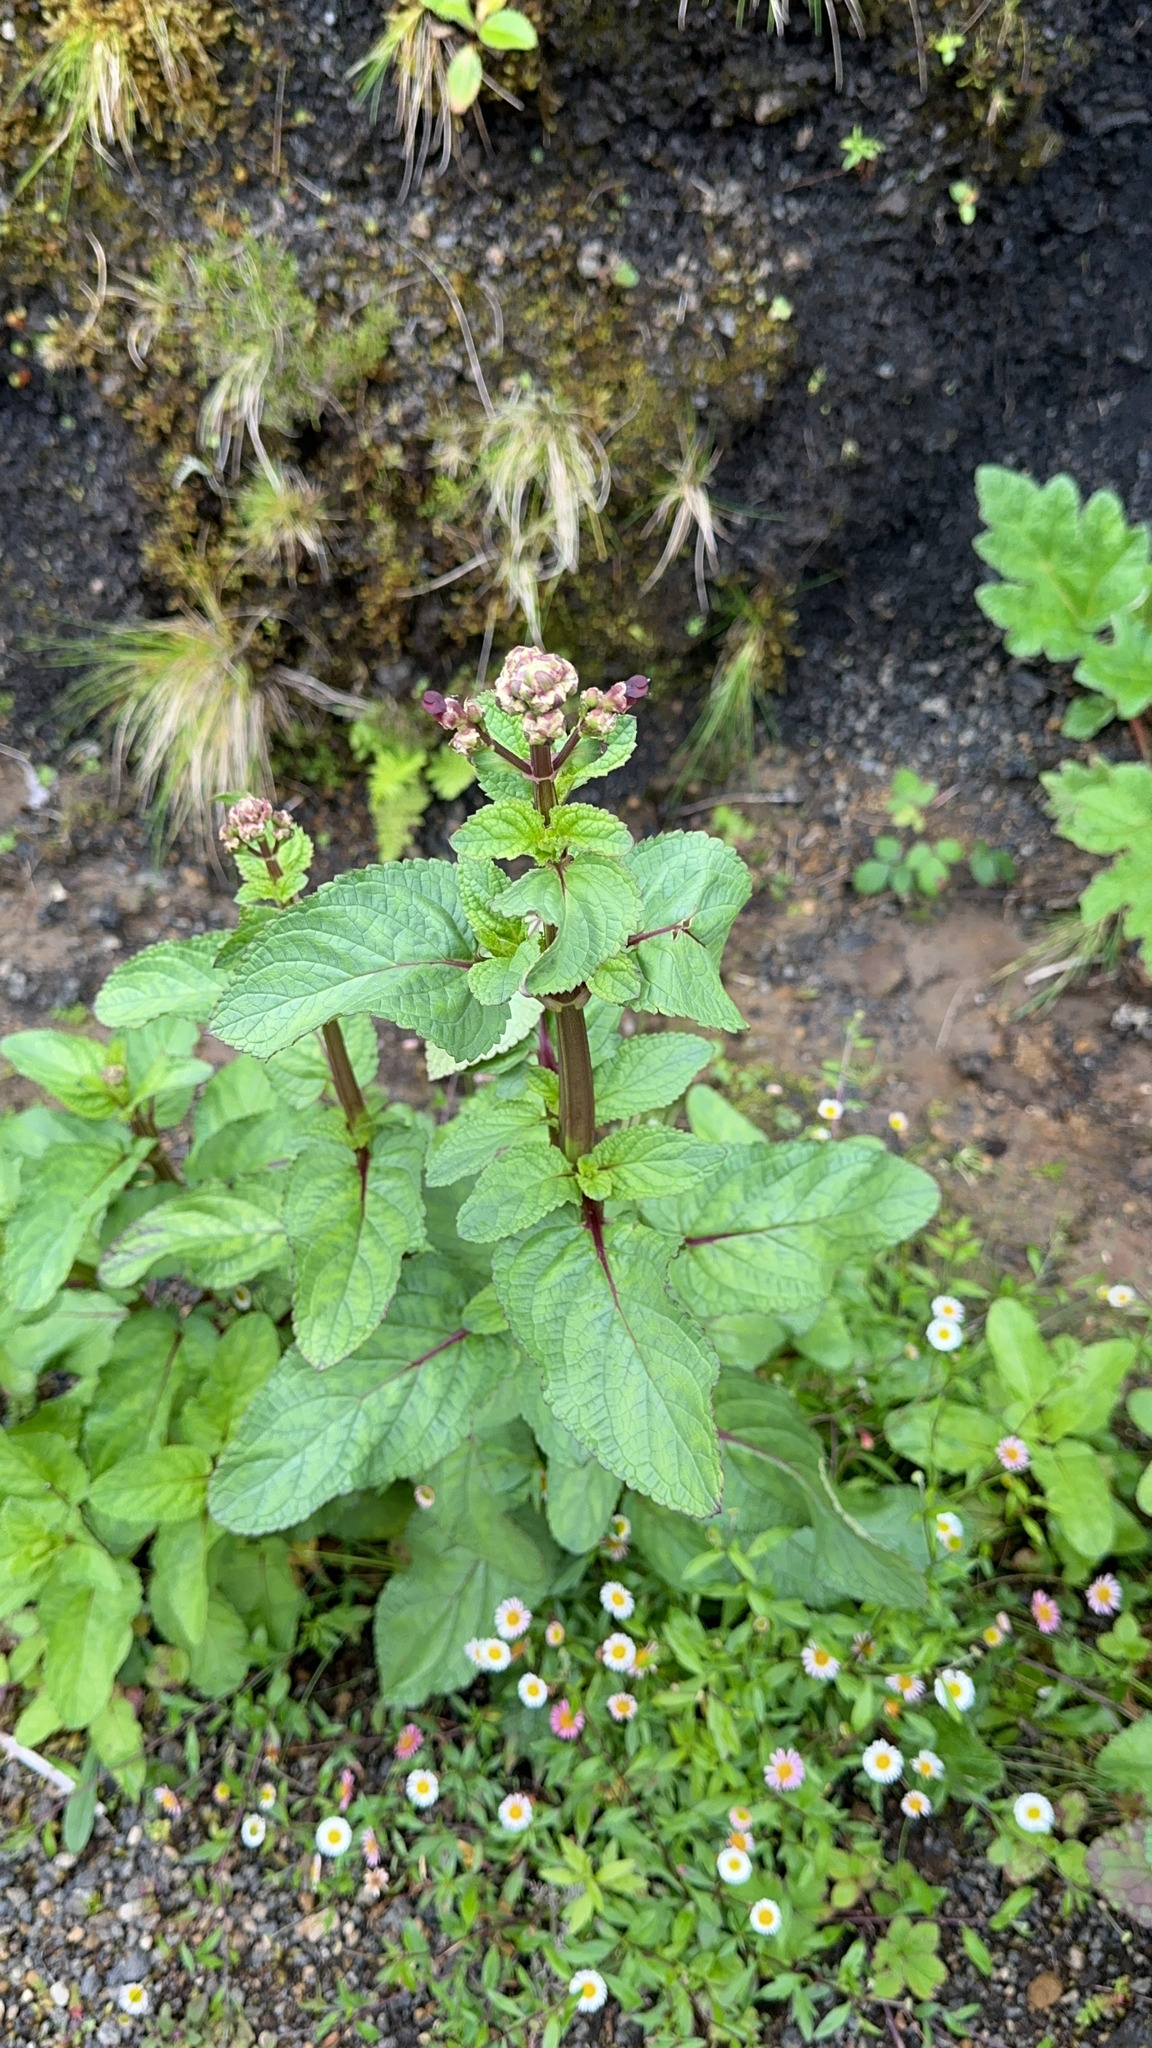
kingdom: Plantae
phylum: Tracheophyta
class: Magnoliopsida
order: Lamiales
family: Scrophulariaceae
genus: Scrophularia
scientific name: Scrophularia auriculata
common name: Water betony
